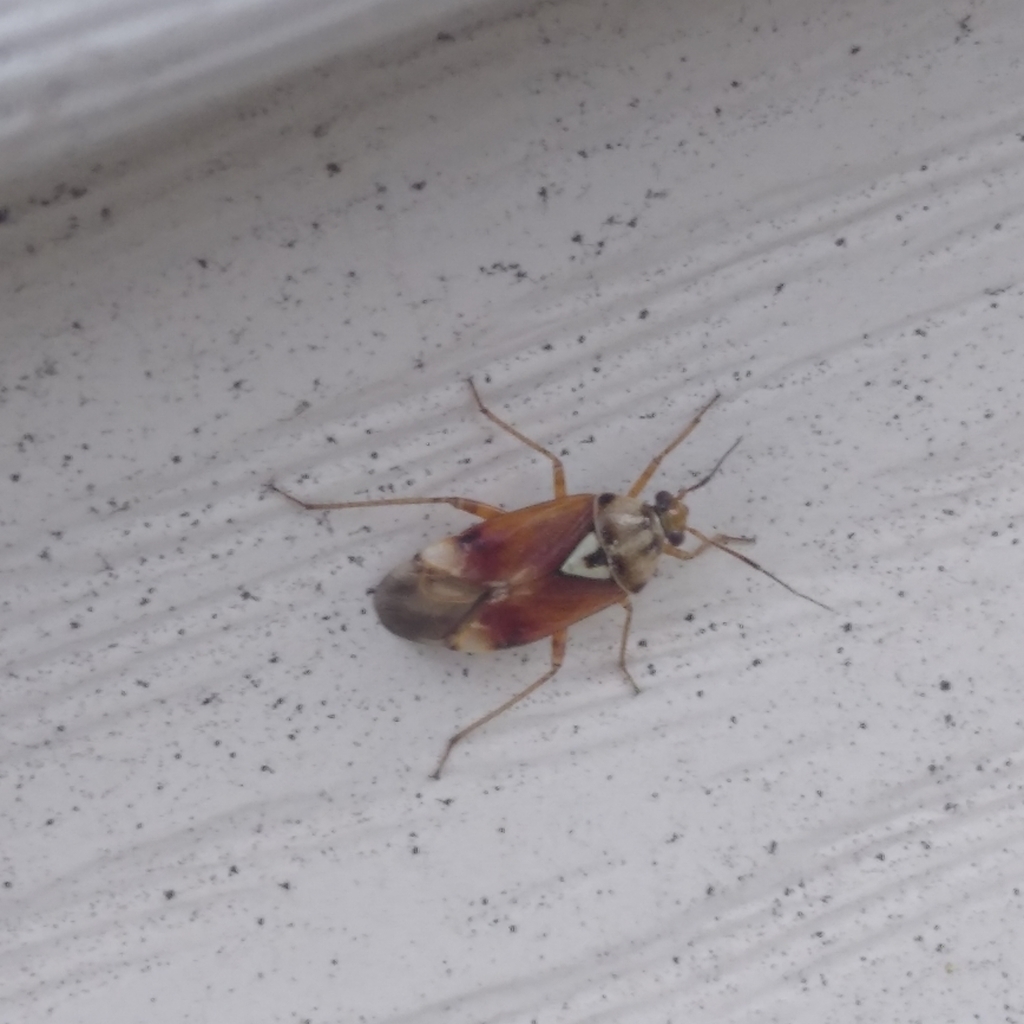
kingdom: Animalia
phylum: Arthropoda
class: Insecta
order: Hemiptera
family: Miridae
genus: Lygus
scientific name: Lygus
